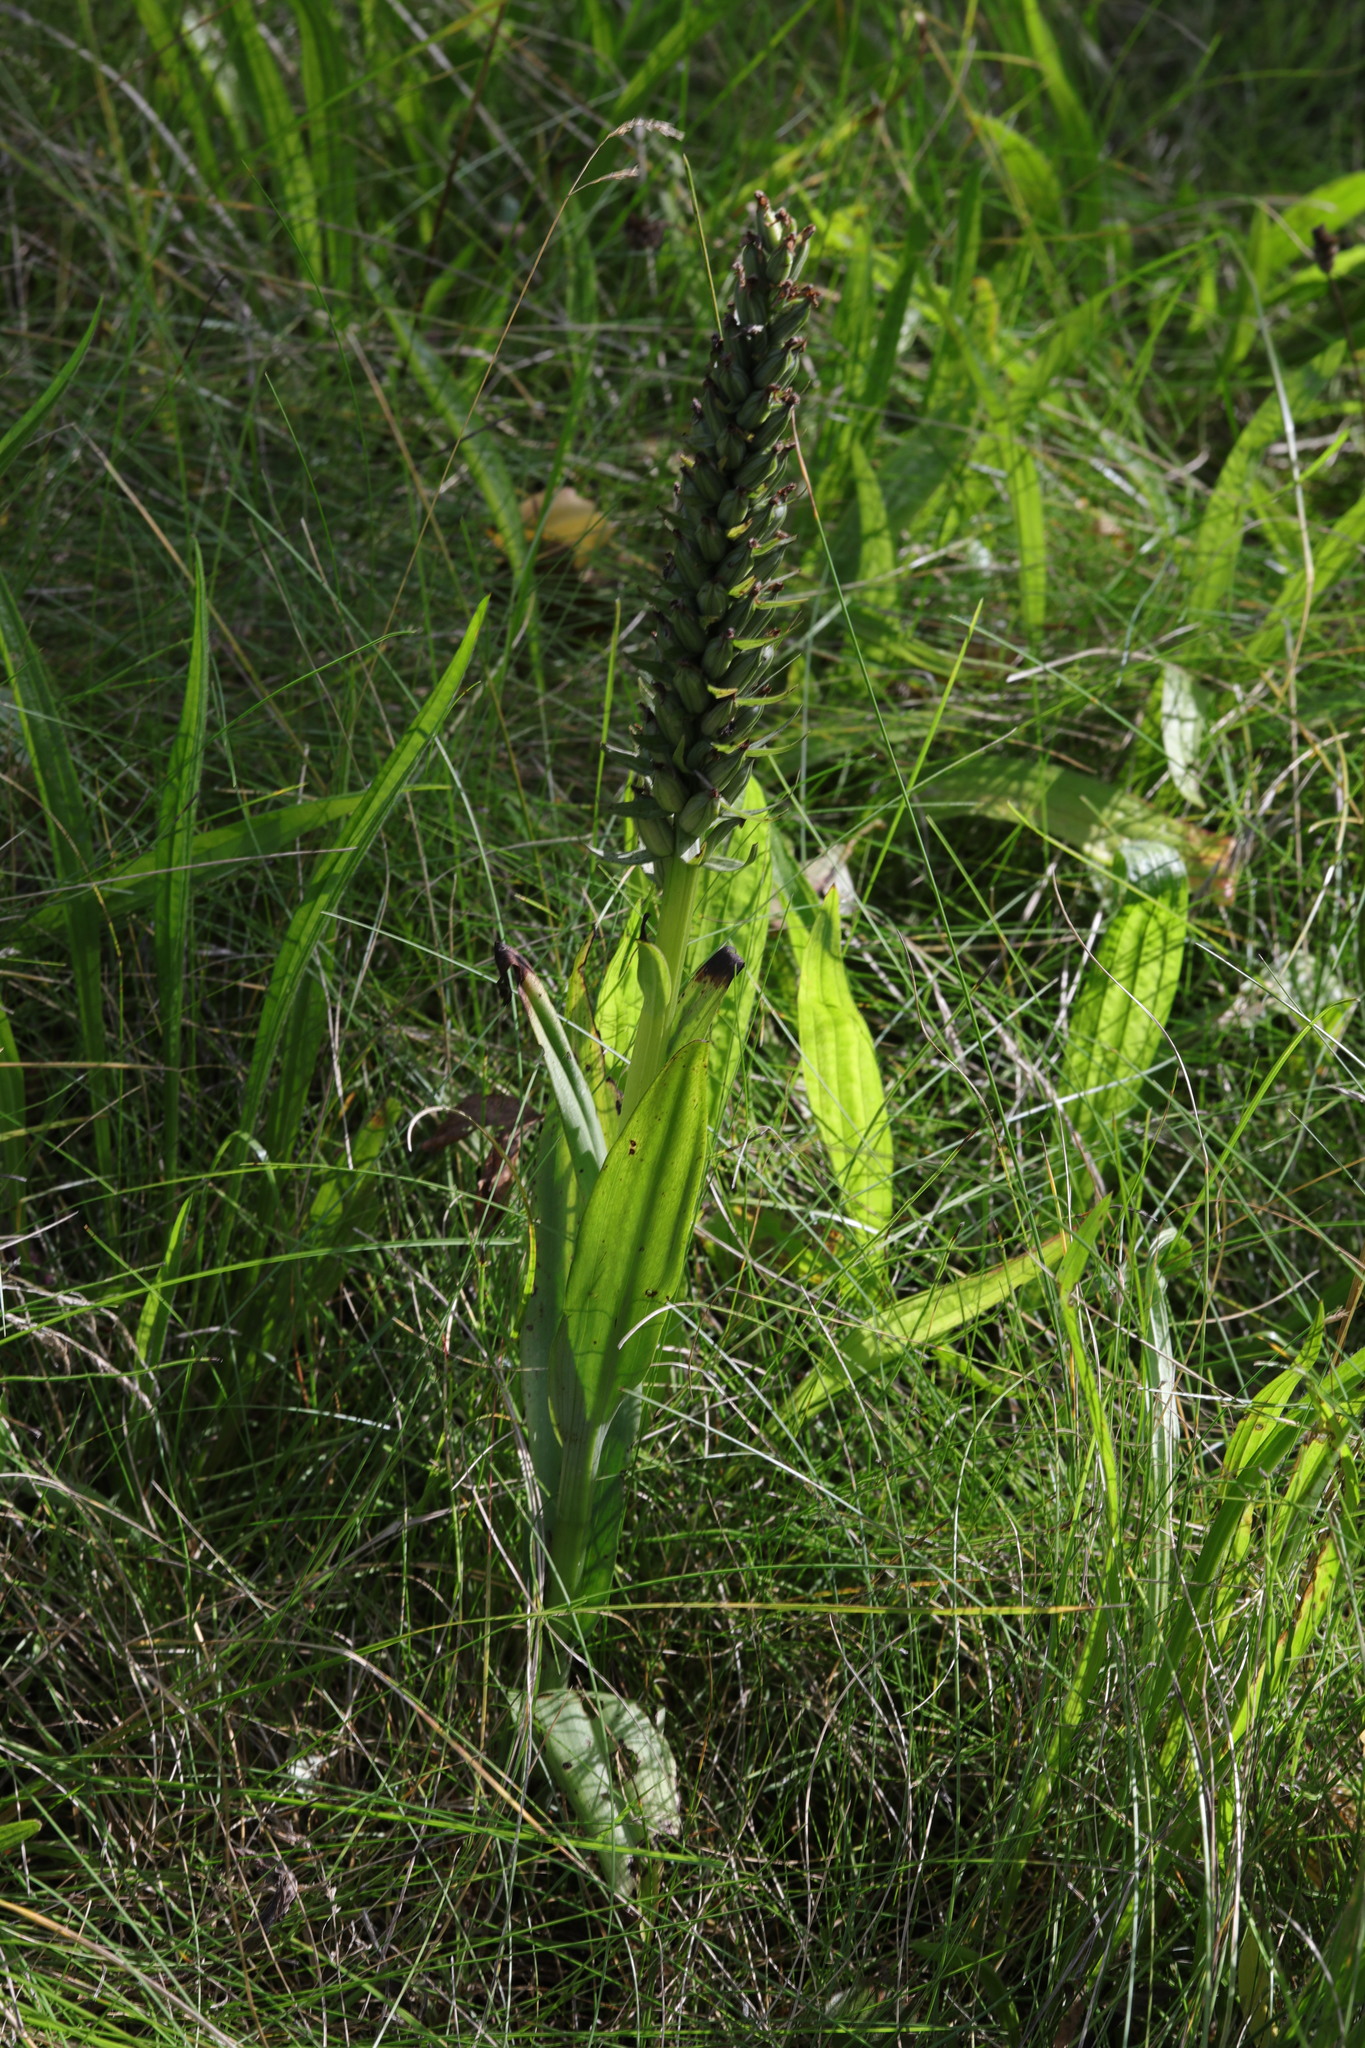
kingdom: Plantae
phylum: Tracheophyta
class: Liliopsida
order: Asparagales
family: Orchidaceae
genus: Dactylorhiza
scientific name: Dactylorhiza incarnata
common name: Early marsh-orchid
